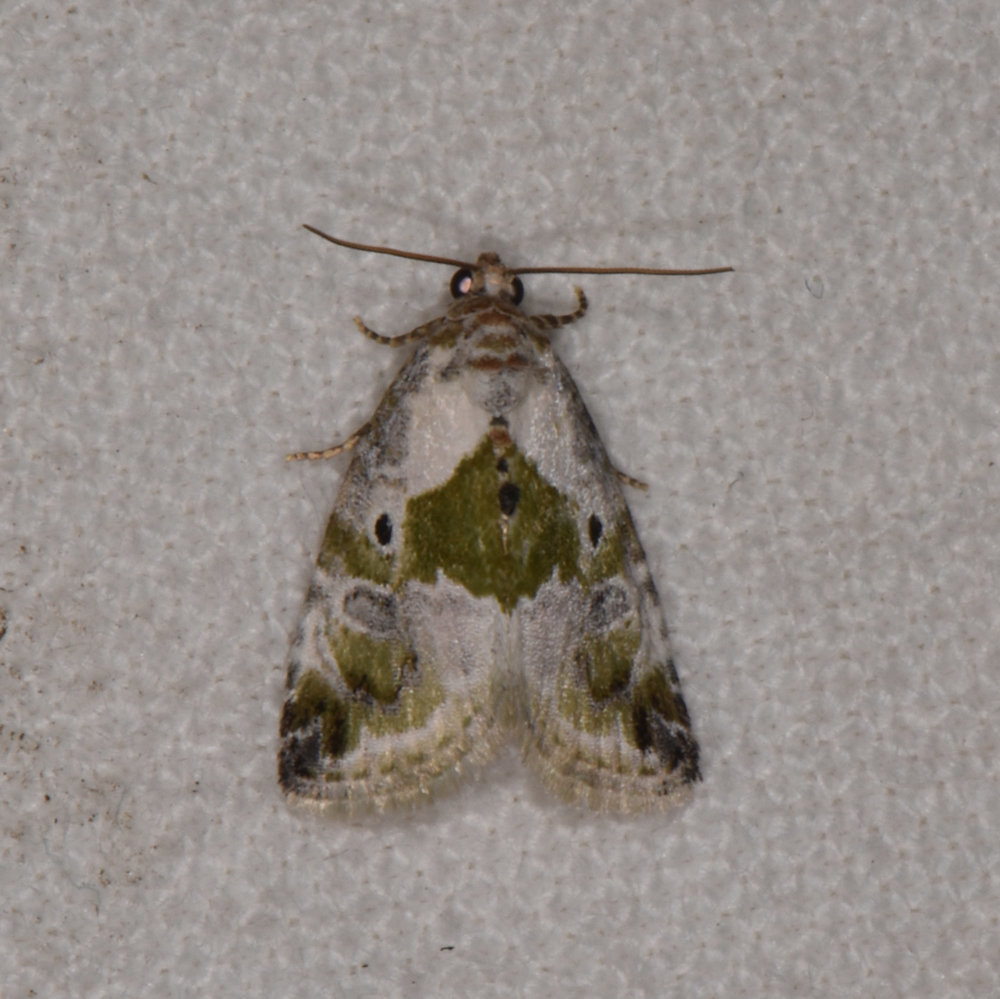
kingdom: Animalia
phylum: Arthropoda
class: Insecta
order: Lepidoptera
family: Noctuidae
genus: Maliattha
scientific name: Maliattha synochitis
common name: Black-dotted glyph
